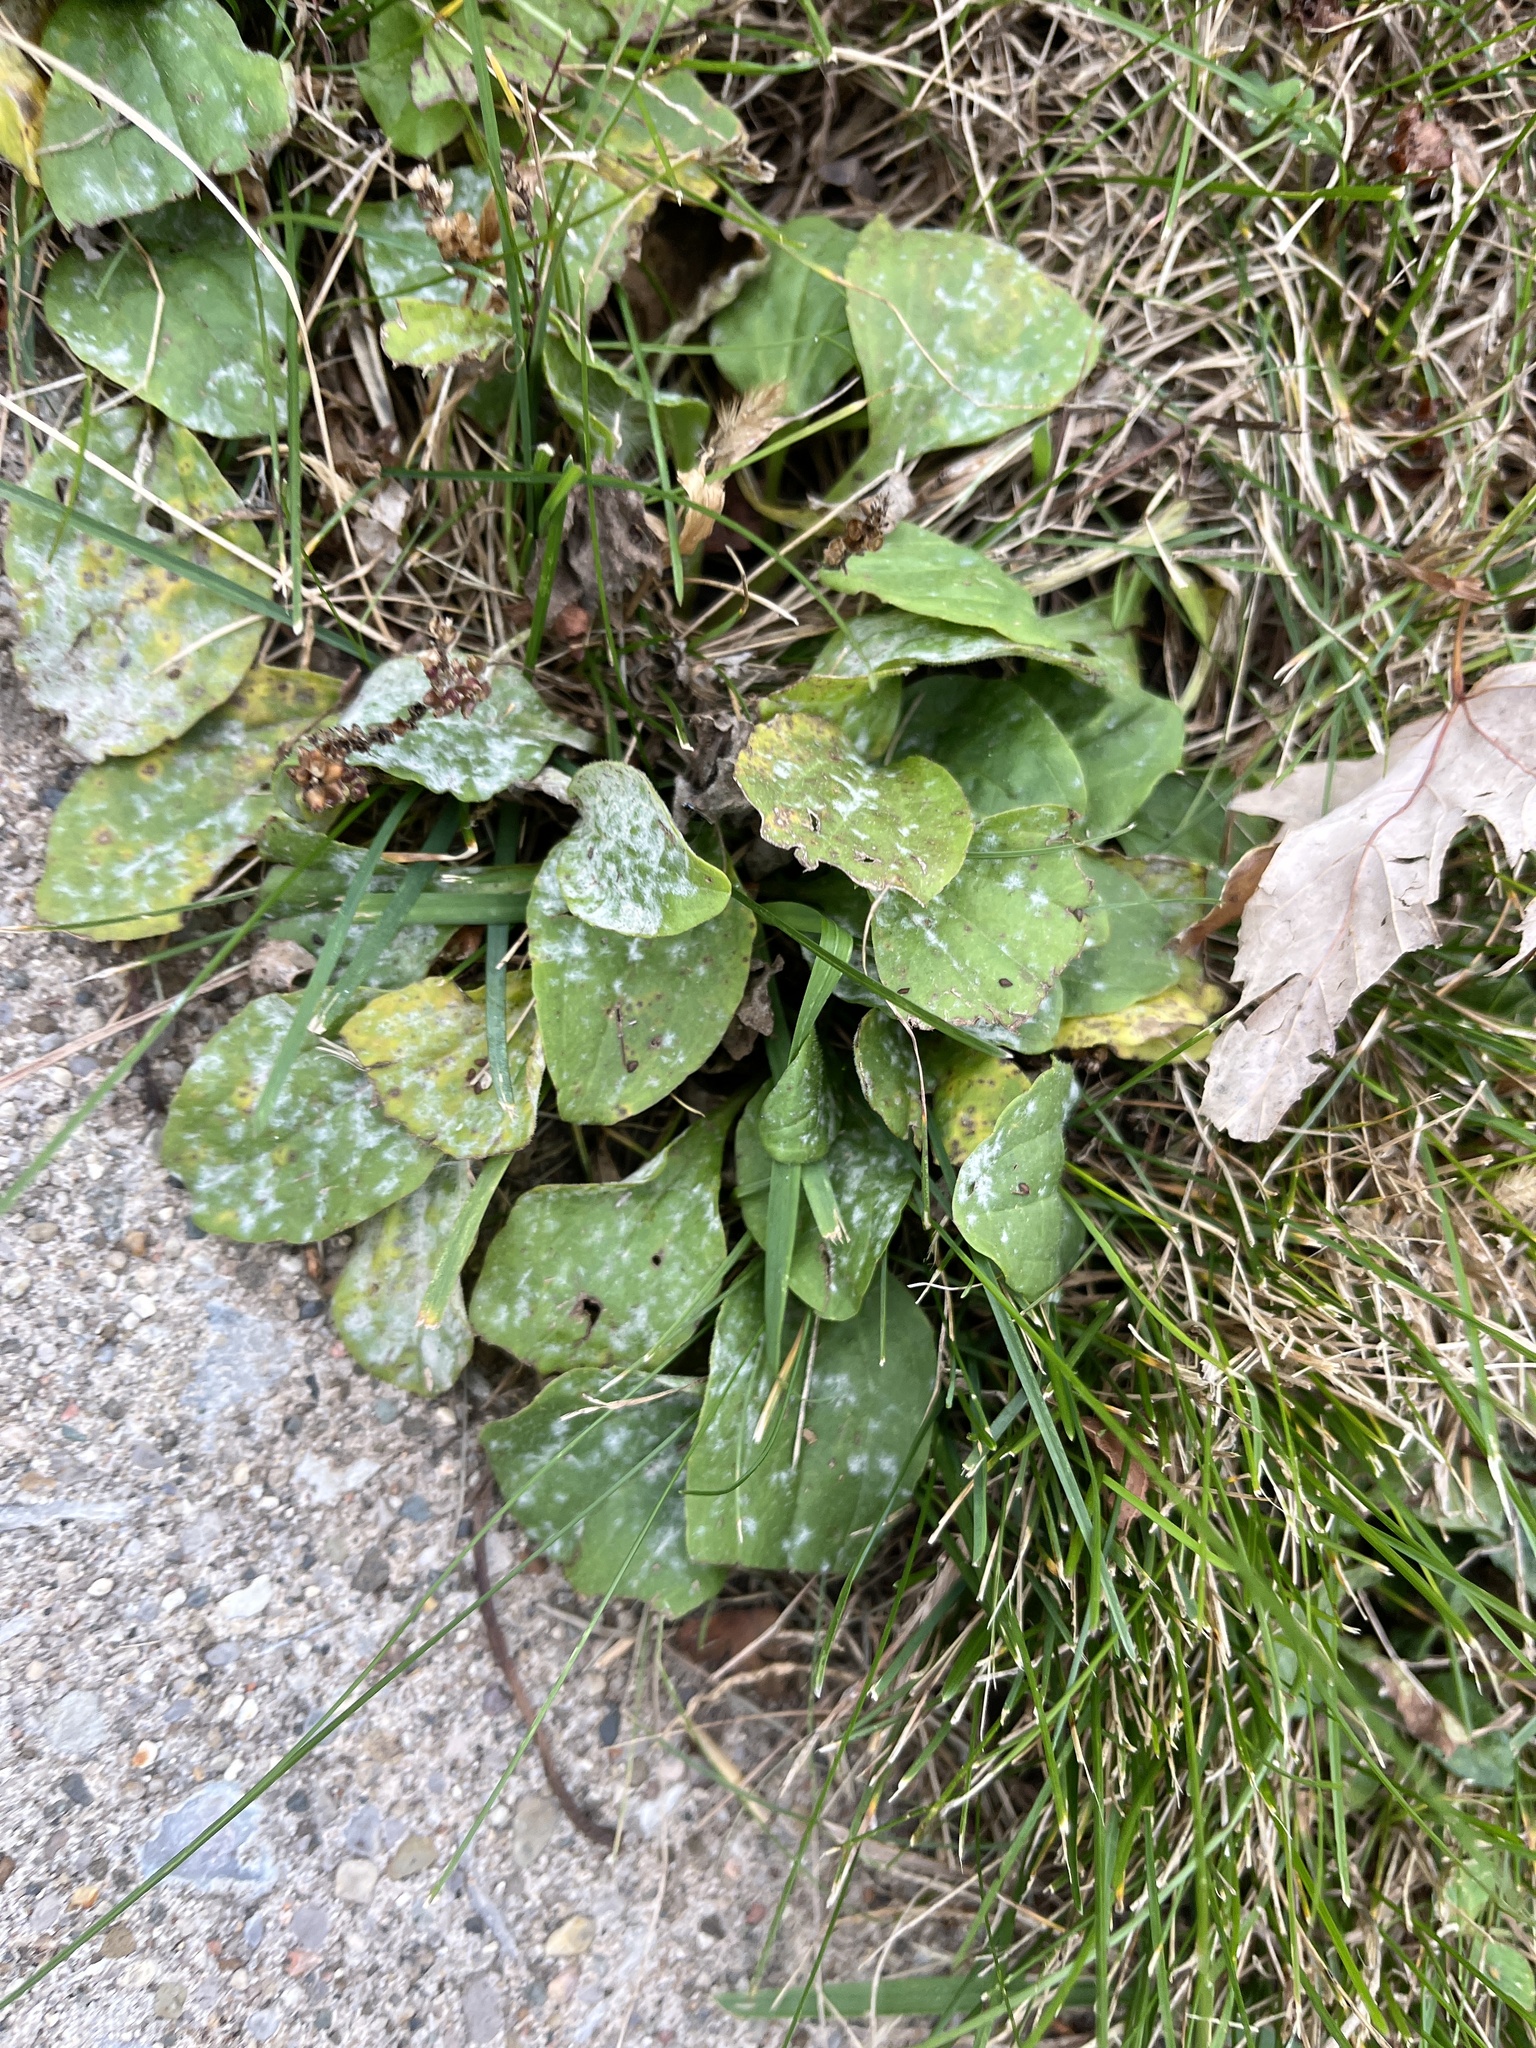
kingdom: Fungi
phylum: Ascomycota
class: Leotiomycetes
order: Helotiales
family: Erysiphaceae
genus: Golovinomyces
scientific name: Golovinomyces sordidus
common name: Plantain mildew
